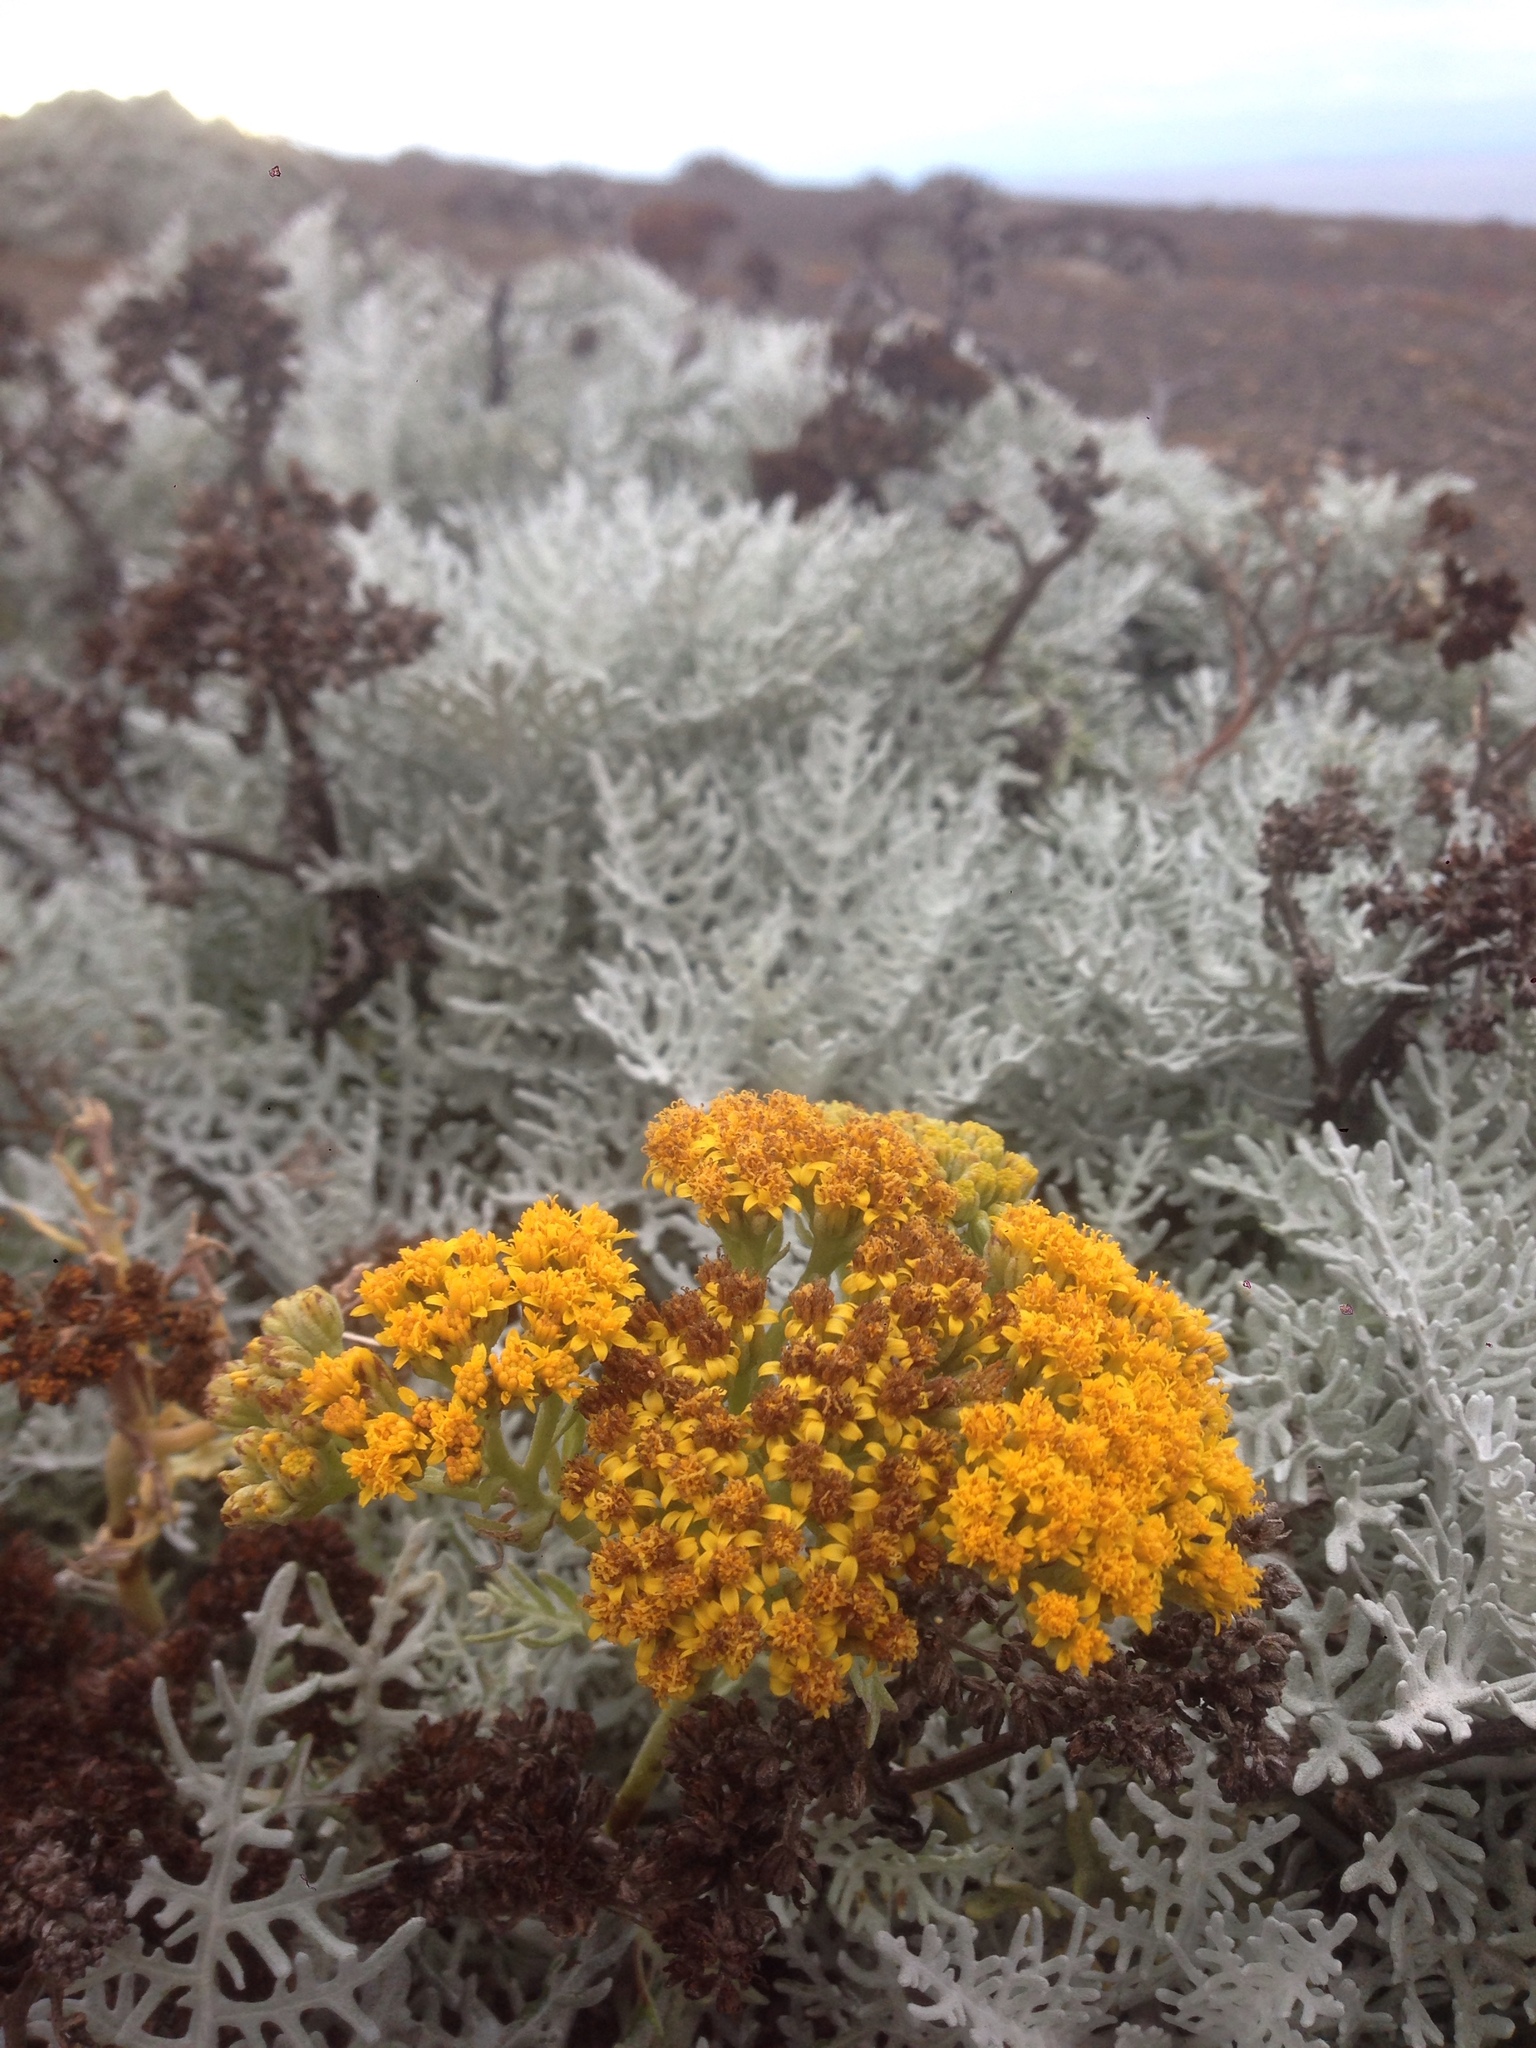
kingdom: Plantae
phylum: Tracheophyta
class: Magnoliopsida
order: Asterales
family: Asteraceae
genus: Constancea
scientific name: Constancea nevinii
